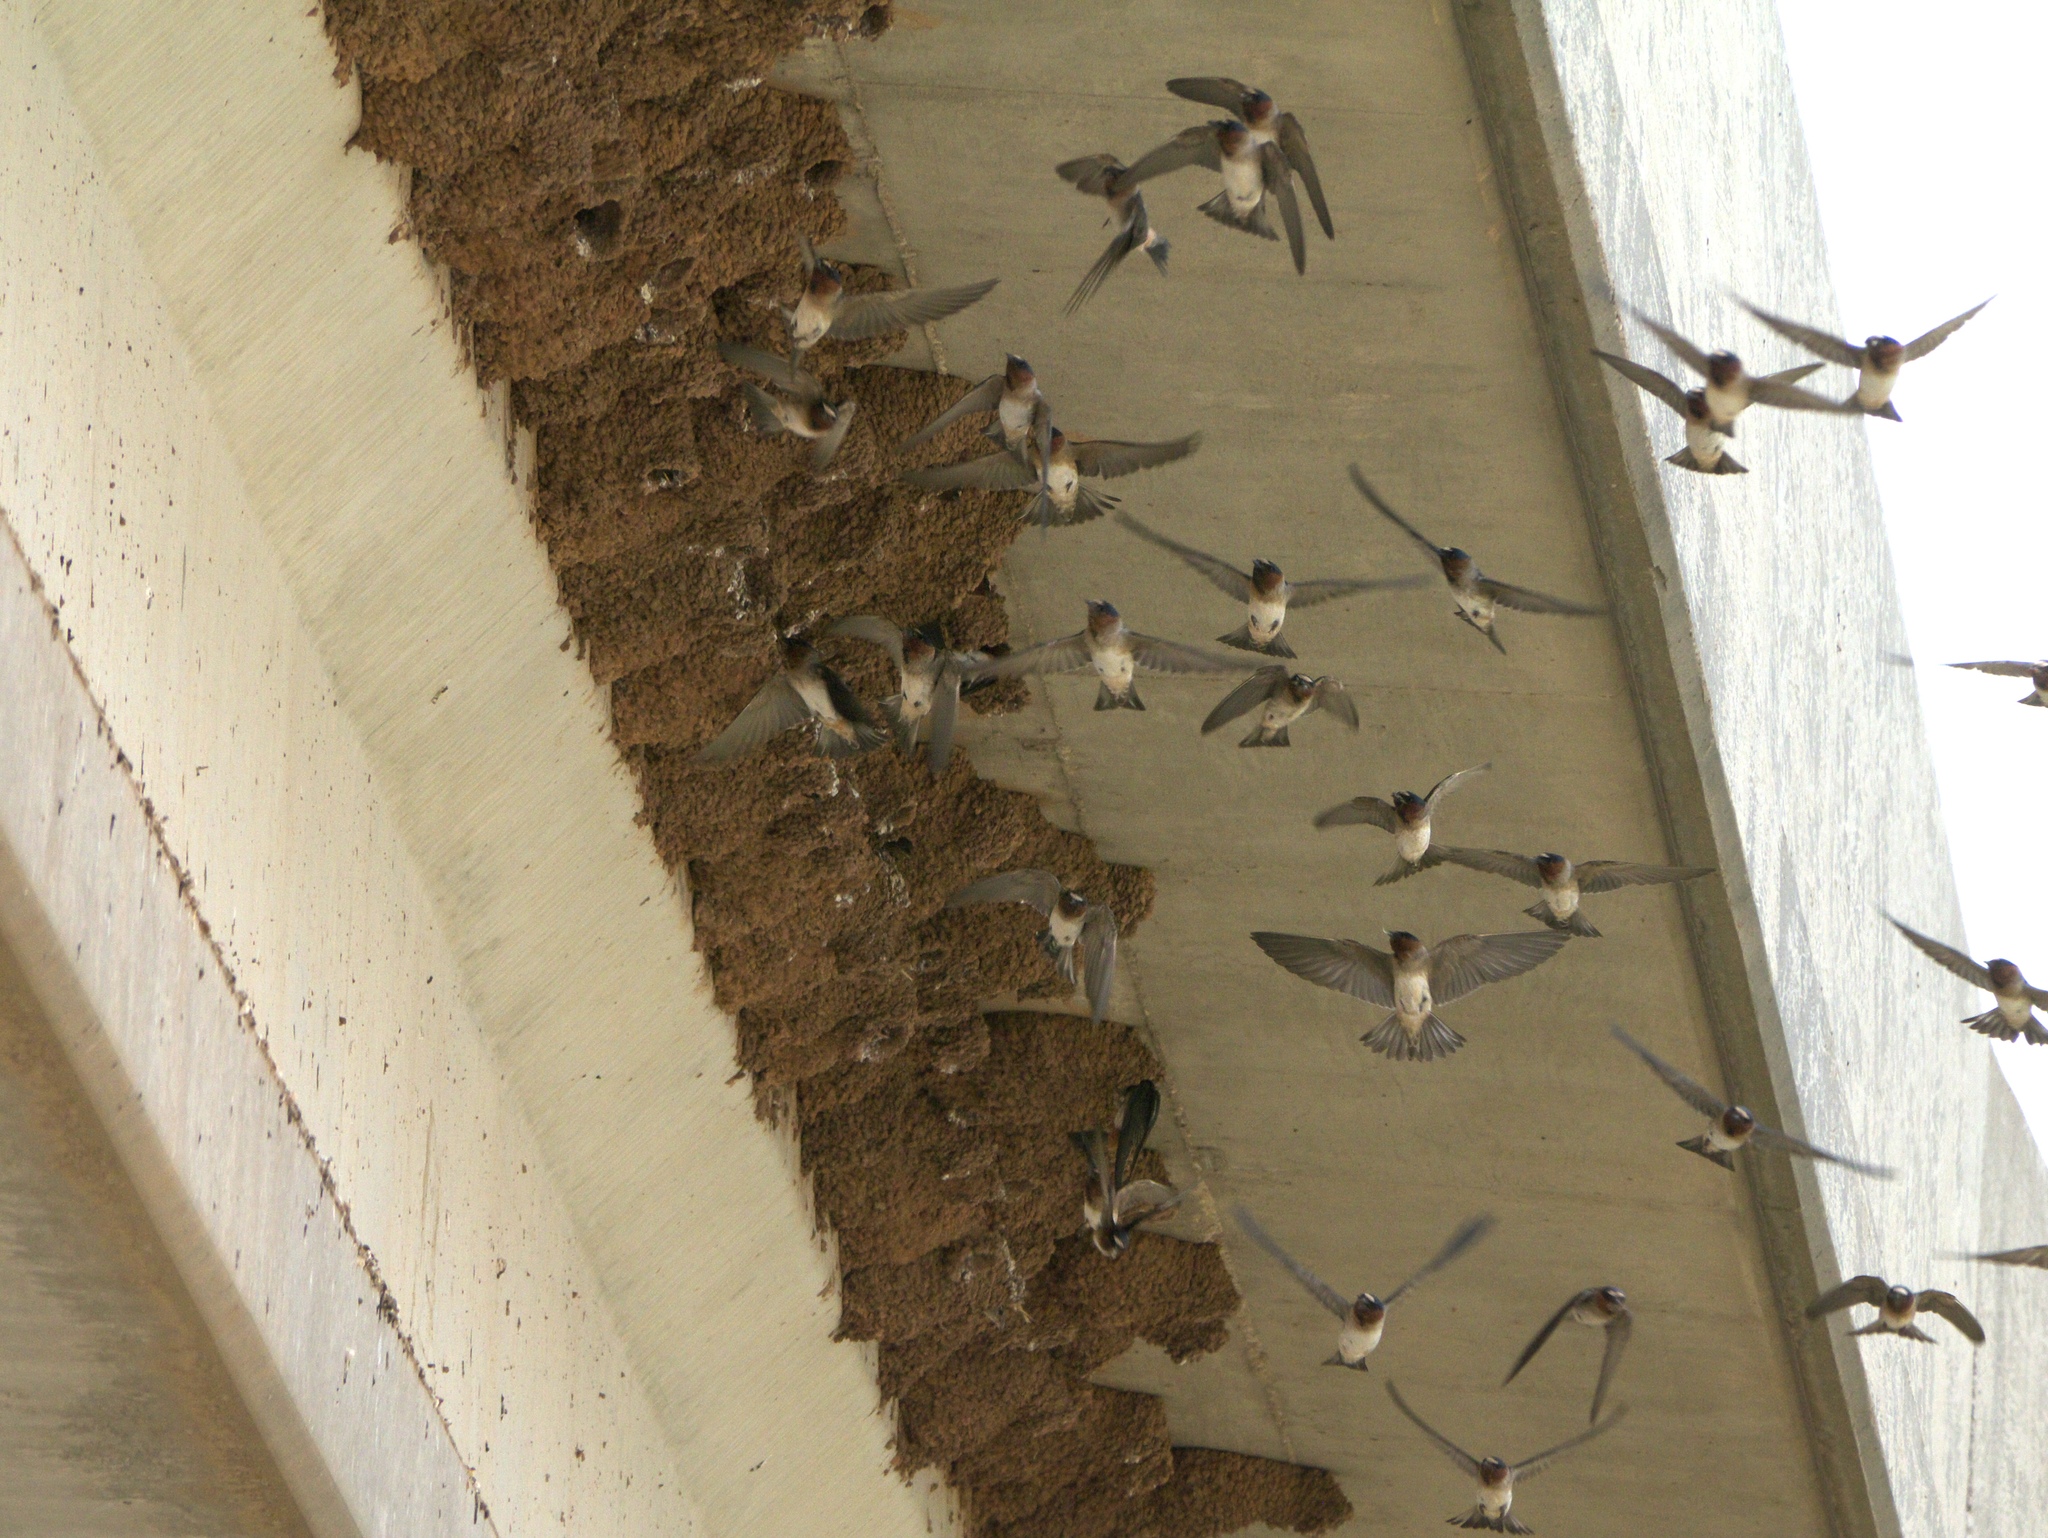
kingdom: Animalia
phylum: Chordata
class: Aves
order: Passeriformes
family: Hirundinidae
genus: Petrochelidon
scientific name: Petrochelidon pyrrhonota
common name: American cliff swallow
